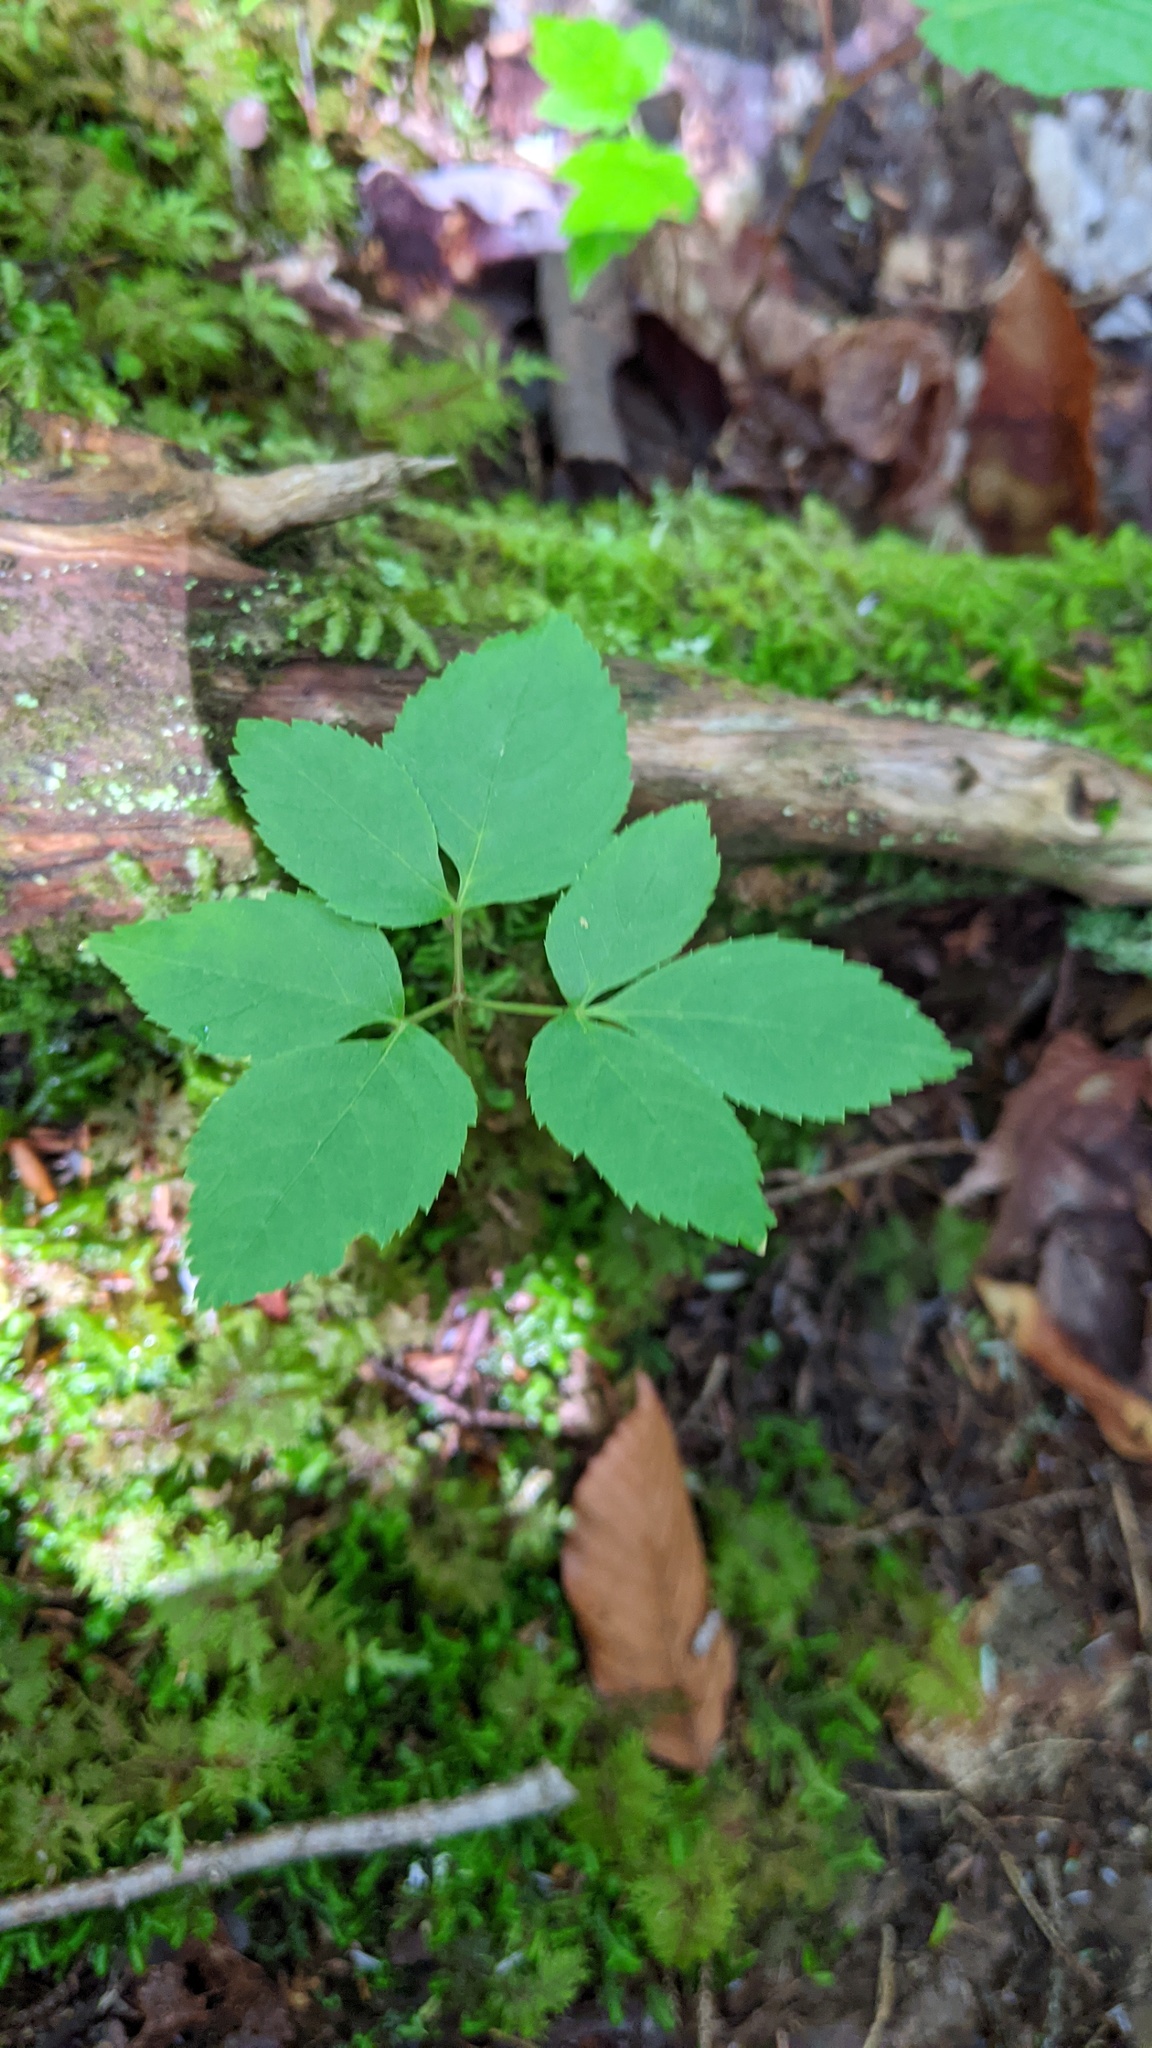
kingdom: Plantae
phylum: Tracheophyta
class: Magnoliopsida
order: Apiales
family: Araliaceae
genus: Aralia
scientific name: Aralia nudicaulis
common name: Wild sarsaparilla
